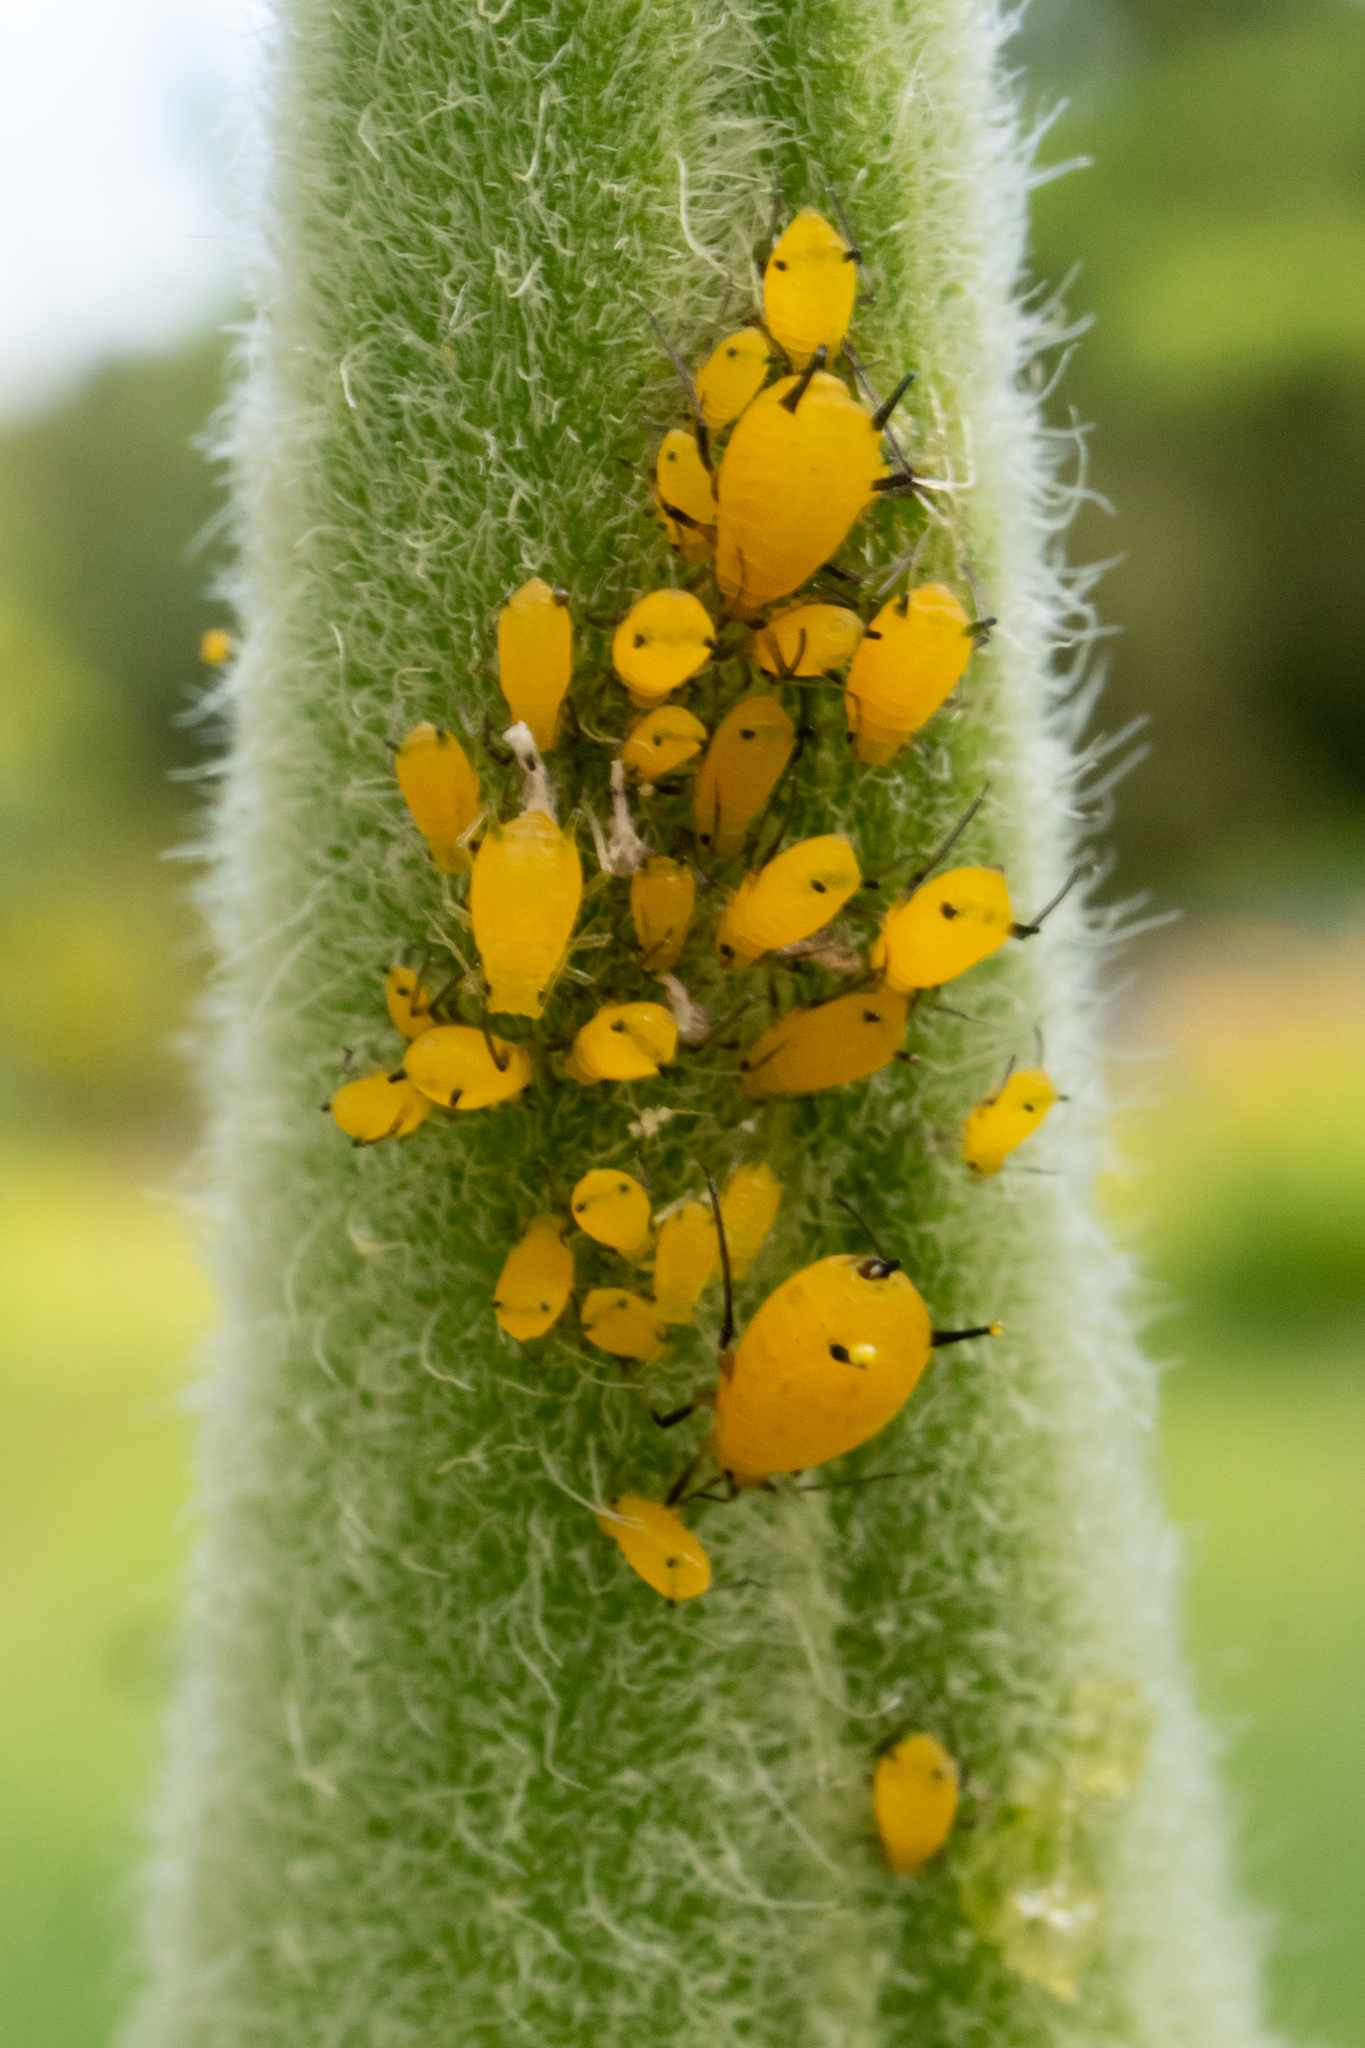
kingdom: Animalia
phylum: Arthropoda
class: Insecta
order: Hemiptera
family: Aphididae
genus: Aphis
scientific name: Aphis nerii
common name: Oleander aphid
